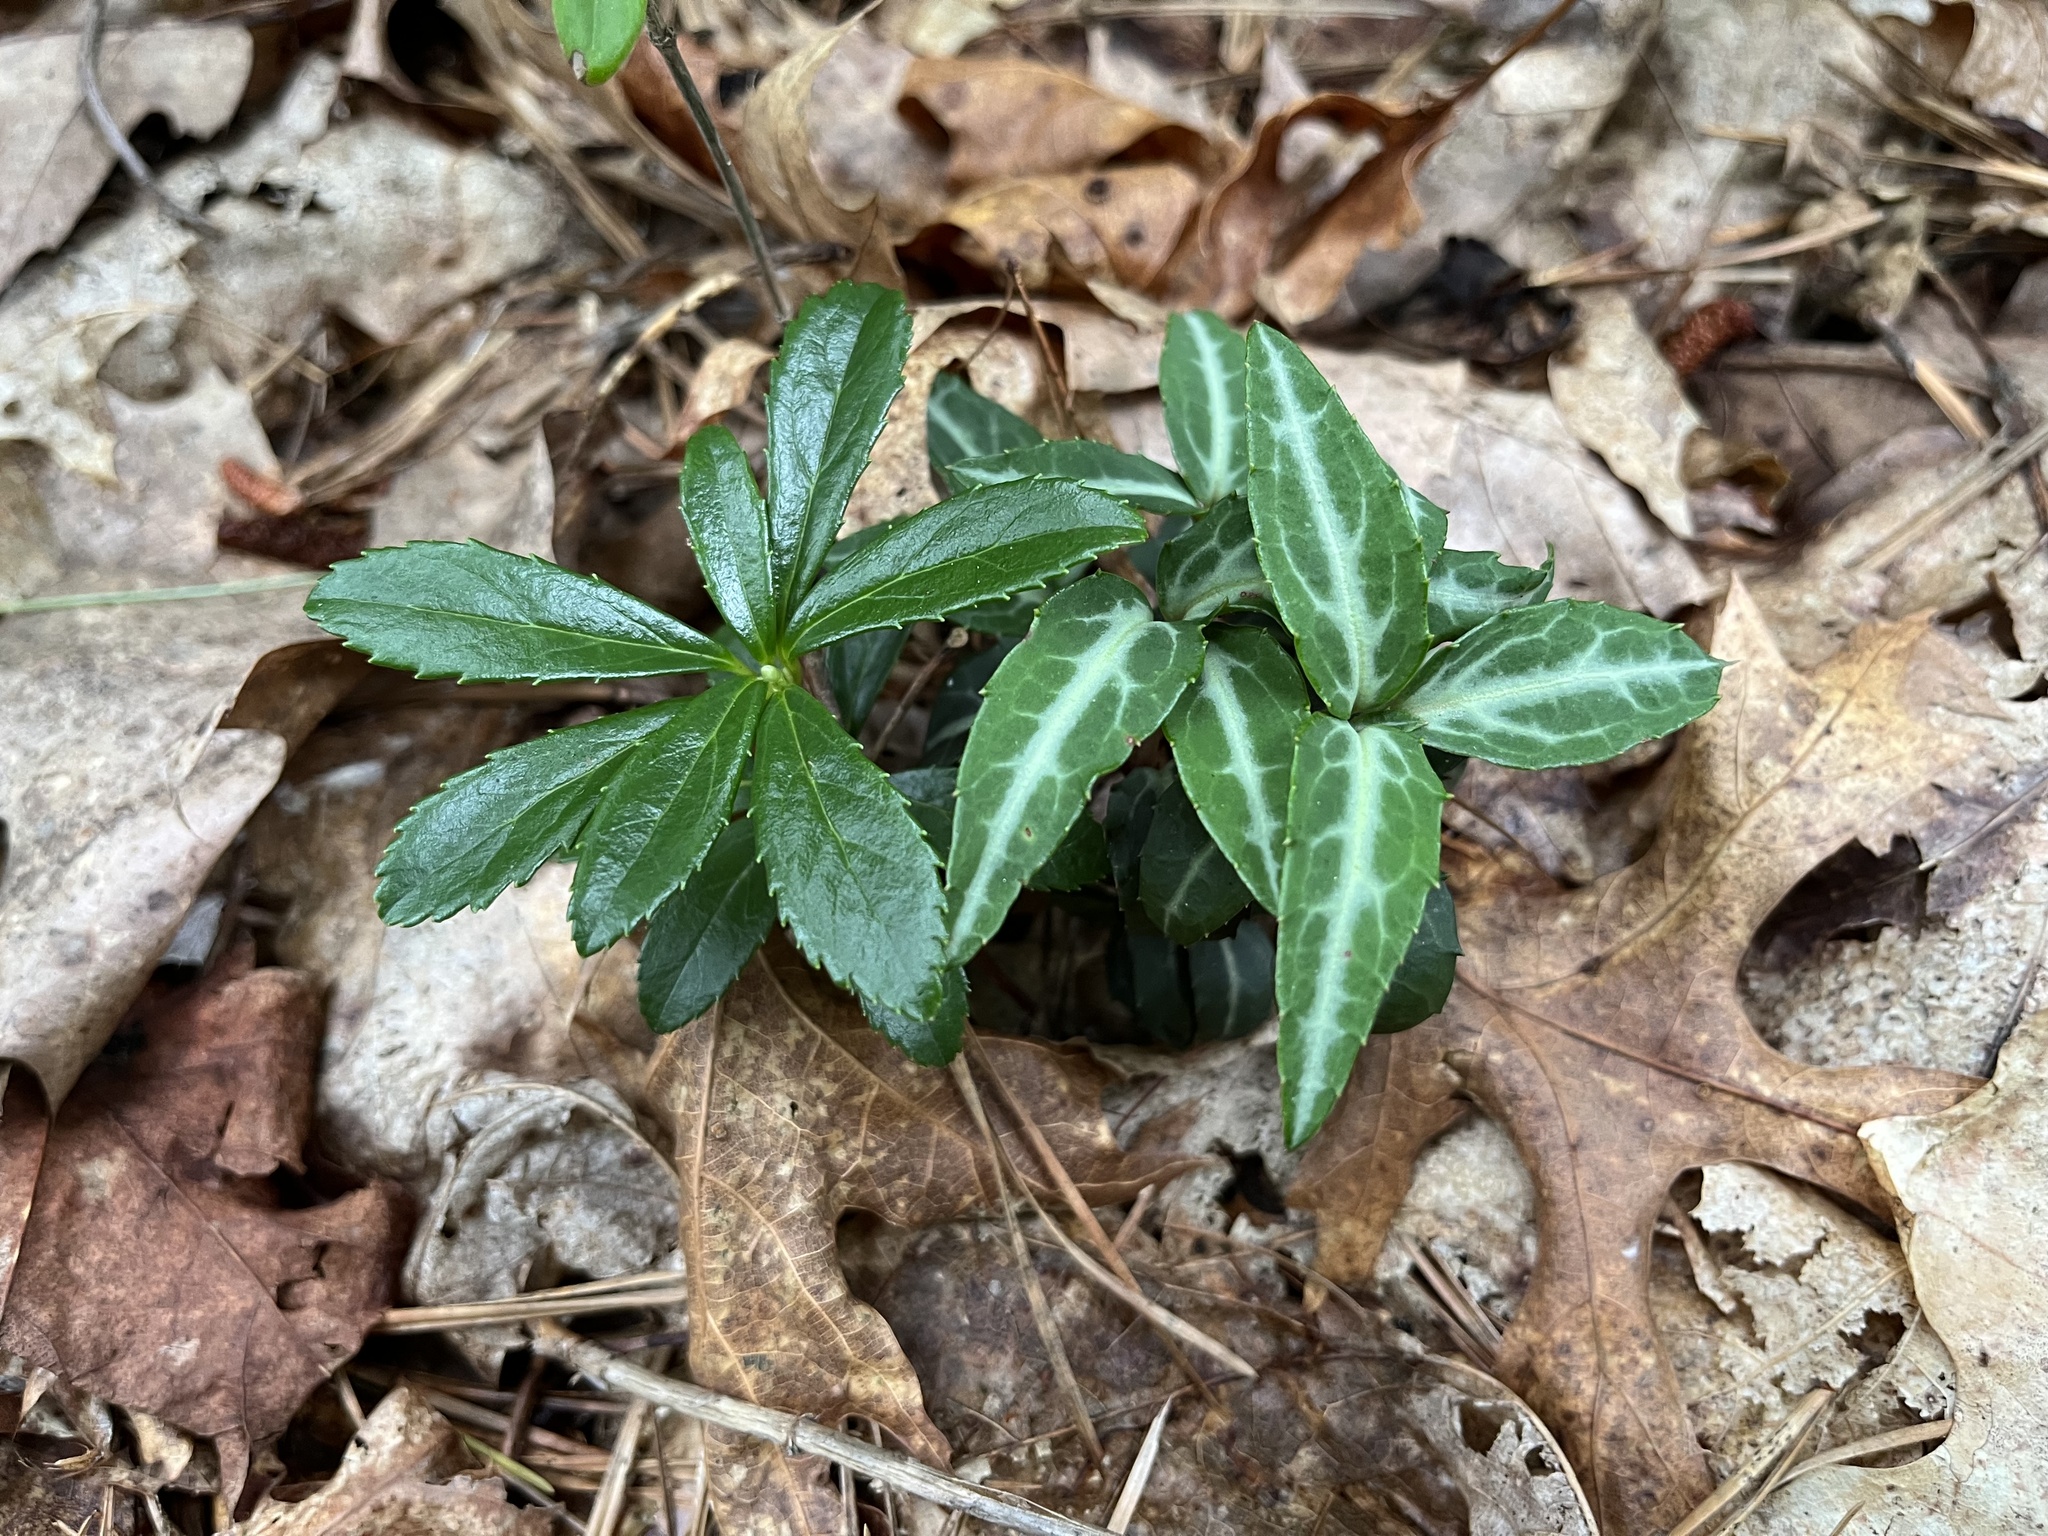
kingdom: Plantae
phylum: Tracheophyta
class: Magnoliopsida
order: Ericales
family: Ericaceae
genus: Chimaphila
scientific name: Chimaphila maculata
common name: Spotted pipsissewa
